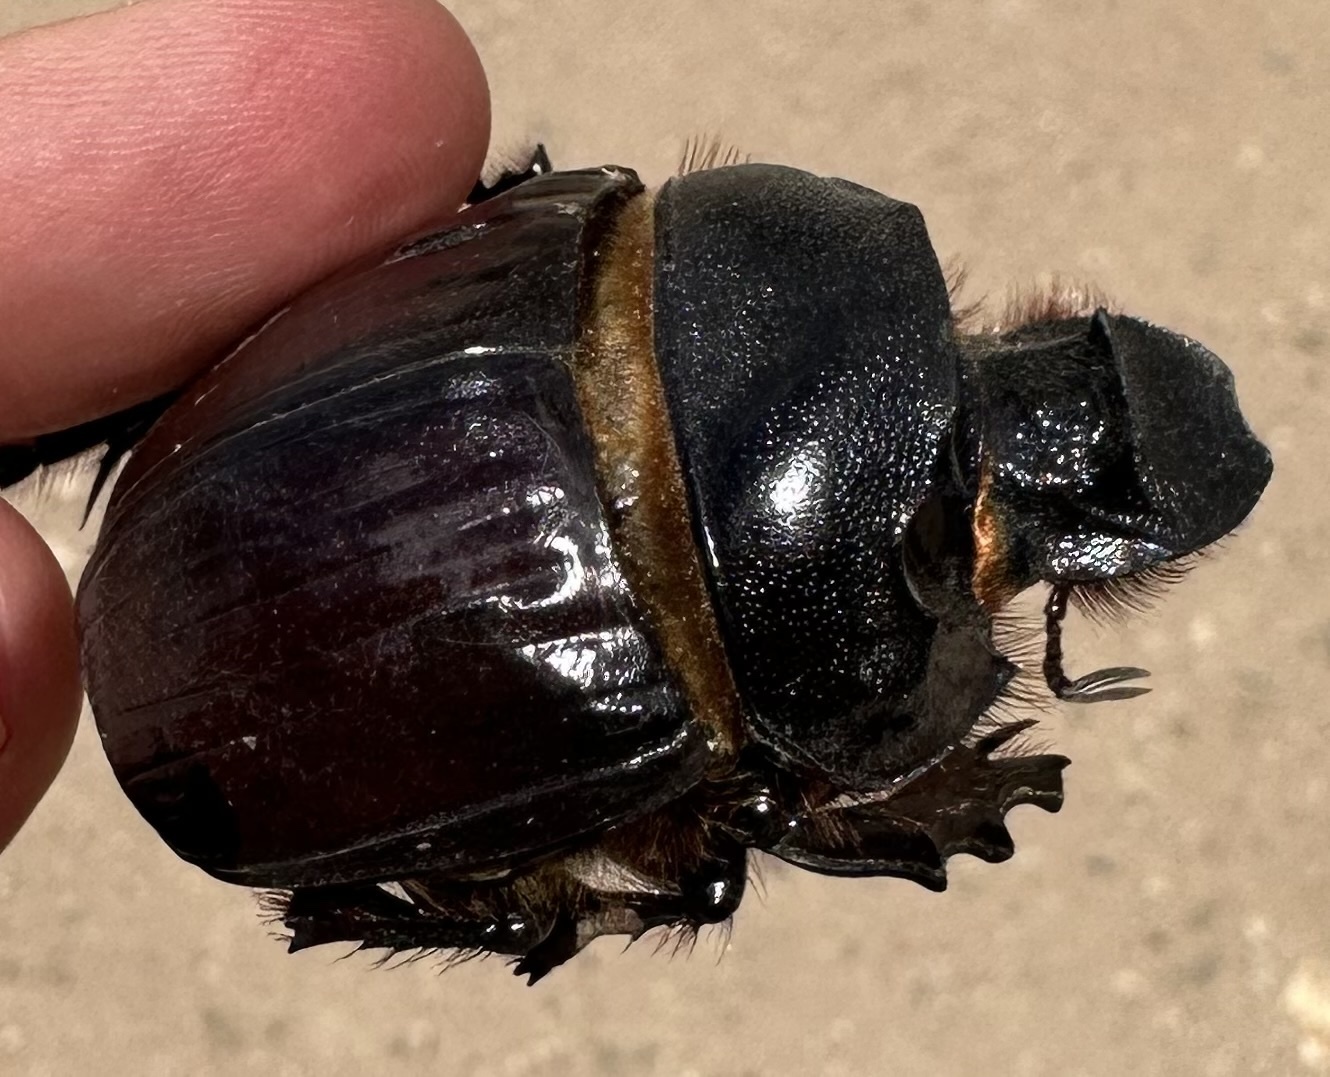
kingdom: Animalia
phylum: Arthropoda
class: Insecta
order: Coleoptera
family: Scarabaeidae
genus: Heliocopris
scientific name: Heliocopris japetus
